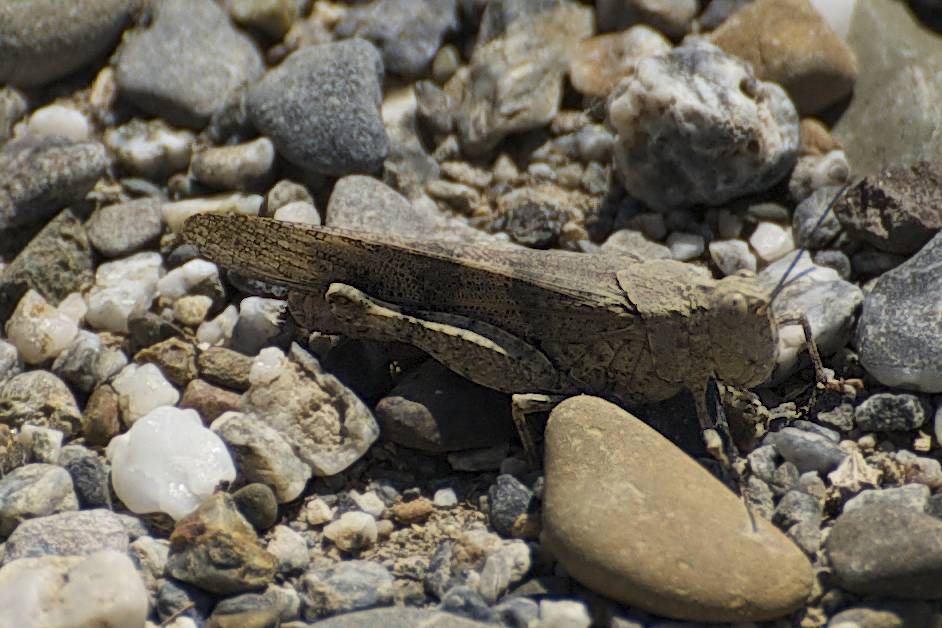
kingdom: Animalia
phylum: Arthropoda
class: Insecta
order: Orthoptera
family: Acrididae
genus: Trimerotropis
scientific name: Trimerotropis pallidipennis
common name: Pallid-winged grasshopper
